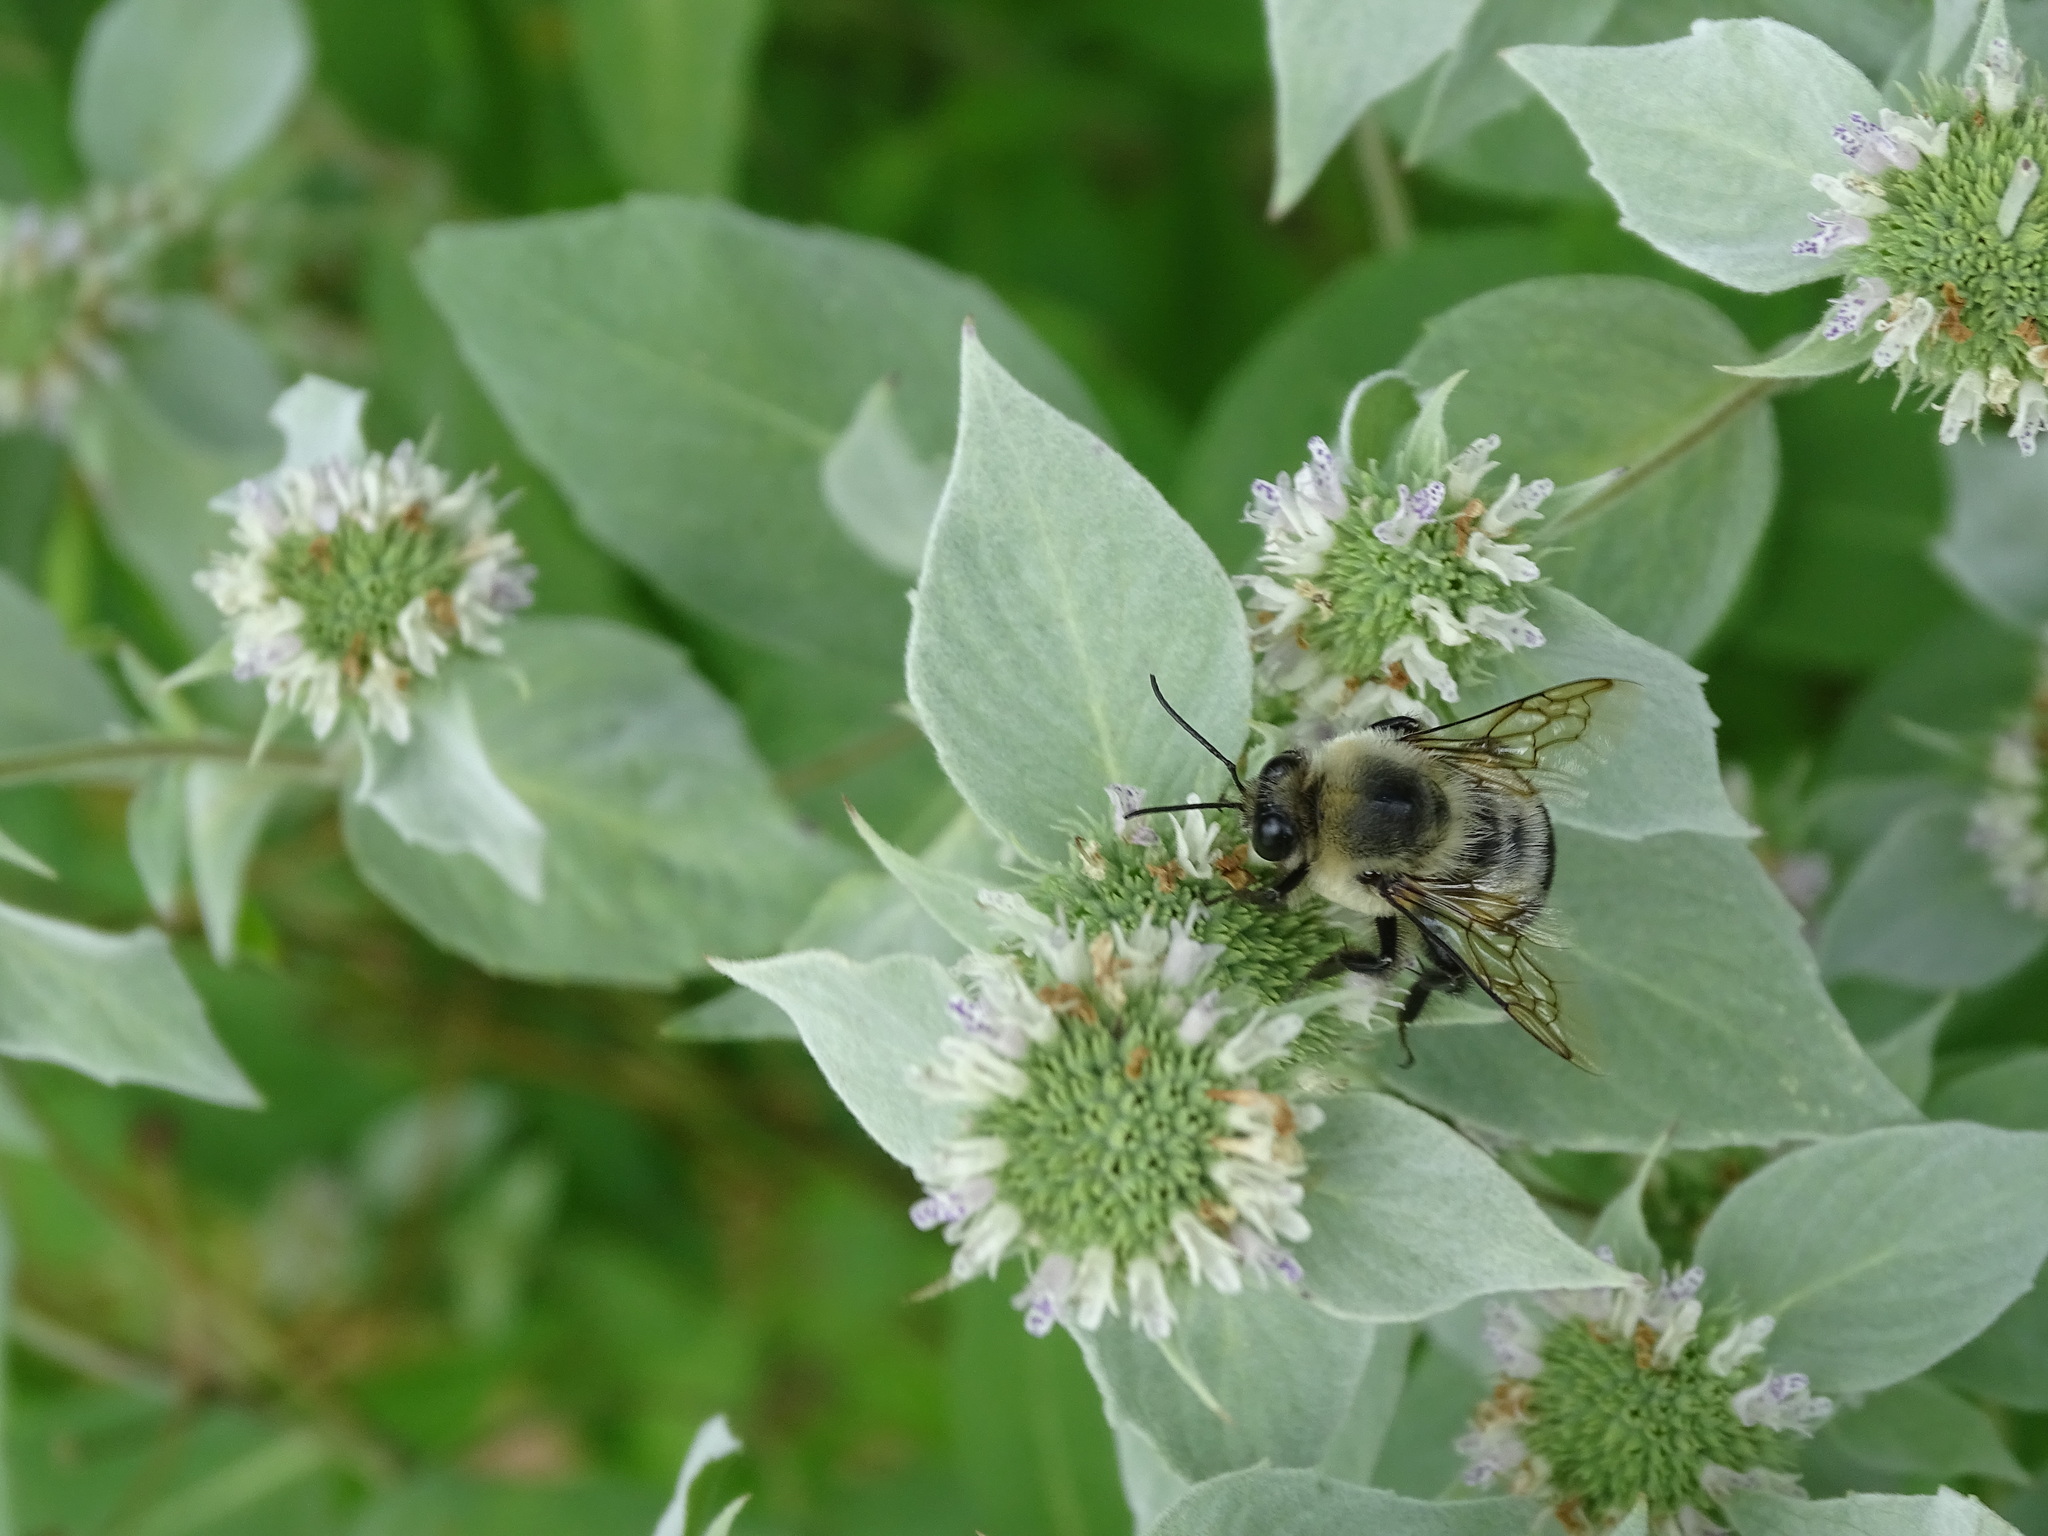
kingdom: Animalia
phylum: Arthropoda
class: Insecta
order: Hymenoptera
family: Apidae
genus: Bombus
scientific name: Bombus griseocollis
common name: Brown-belted bumble bee
